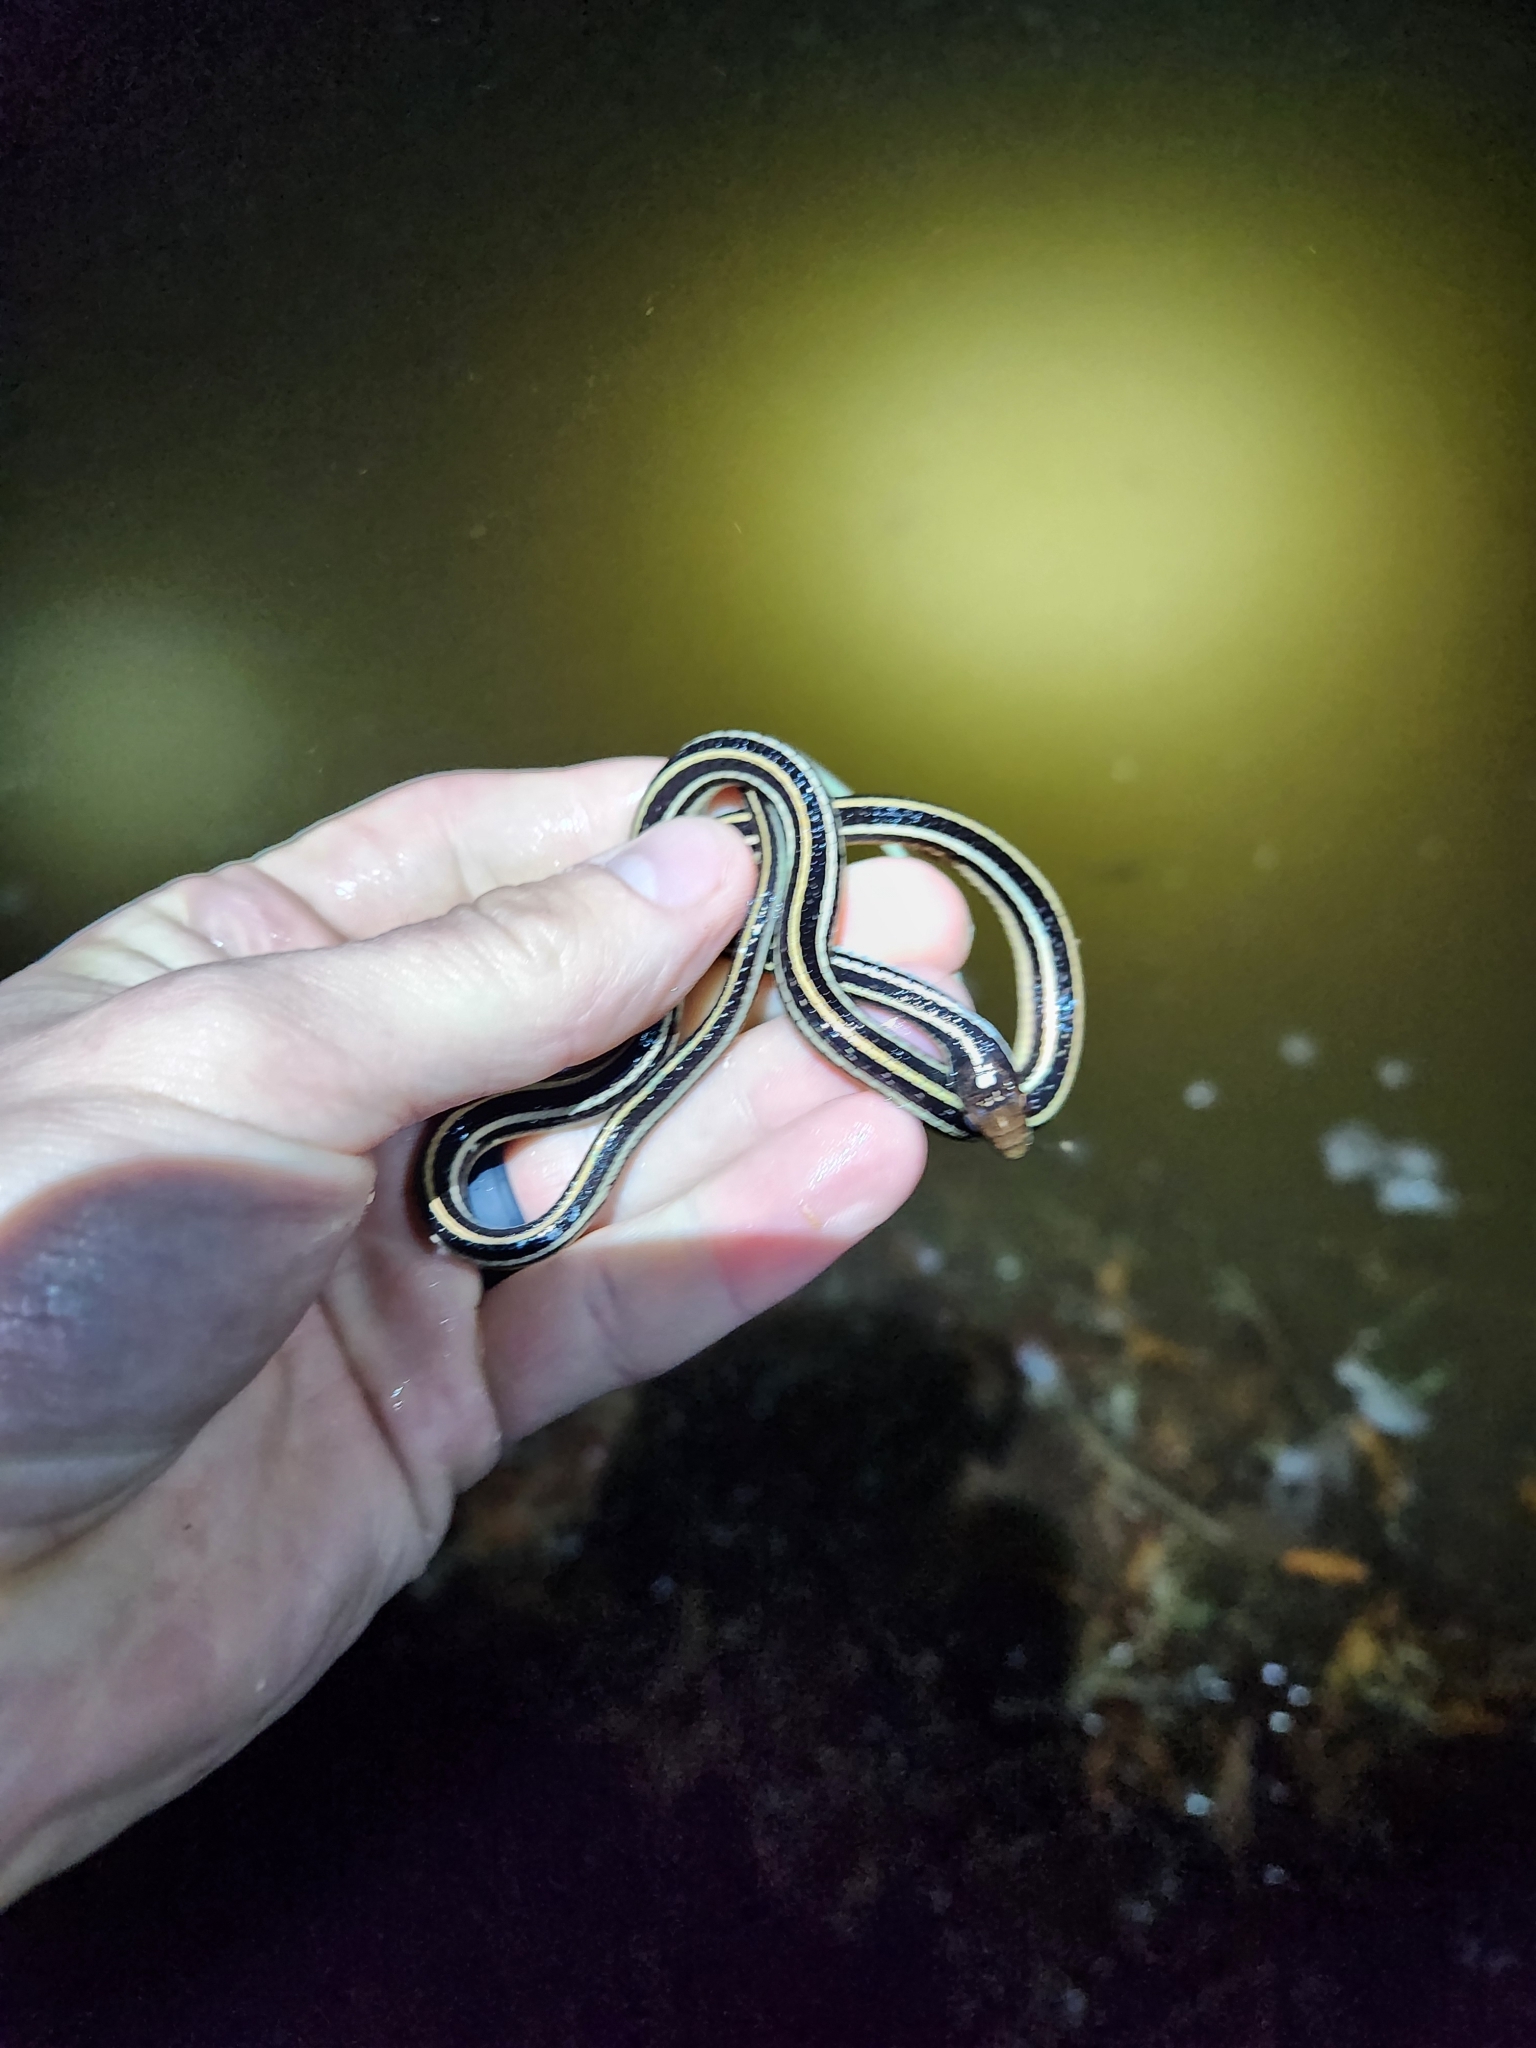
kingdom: Animalia
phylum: Chordata
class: Squamata
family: Colubridae
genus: Thamnophis
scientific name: Thamnophis proximus
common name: Western ribbon snake
